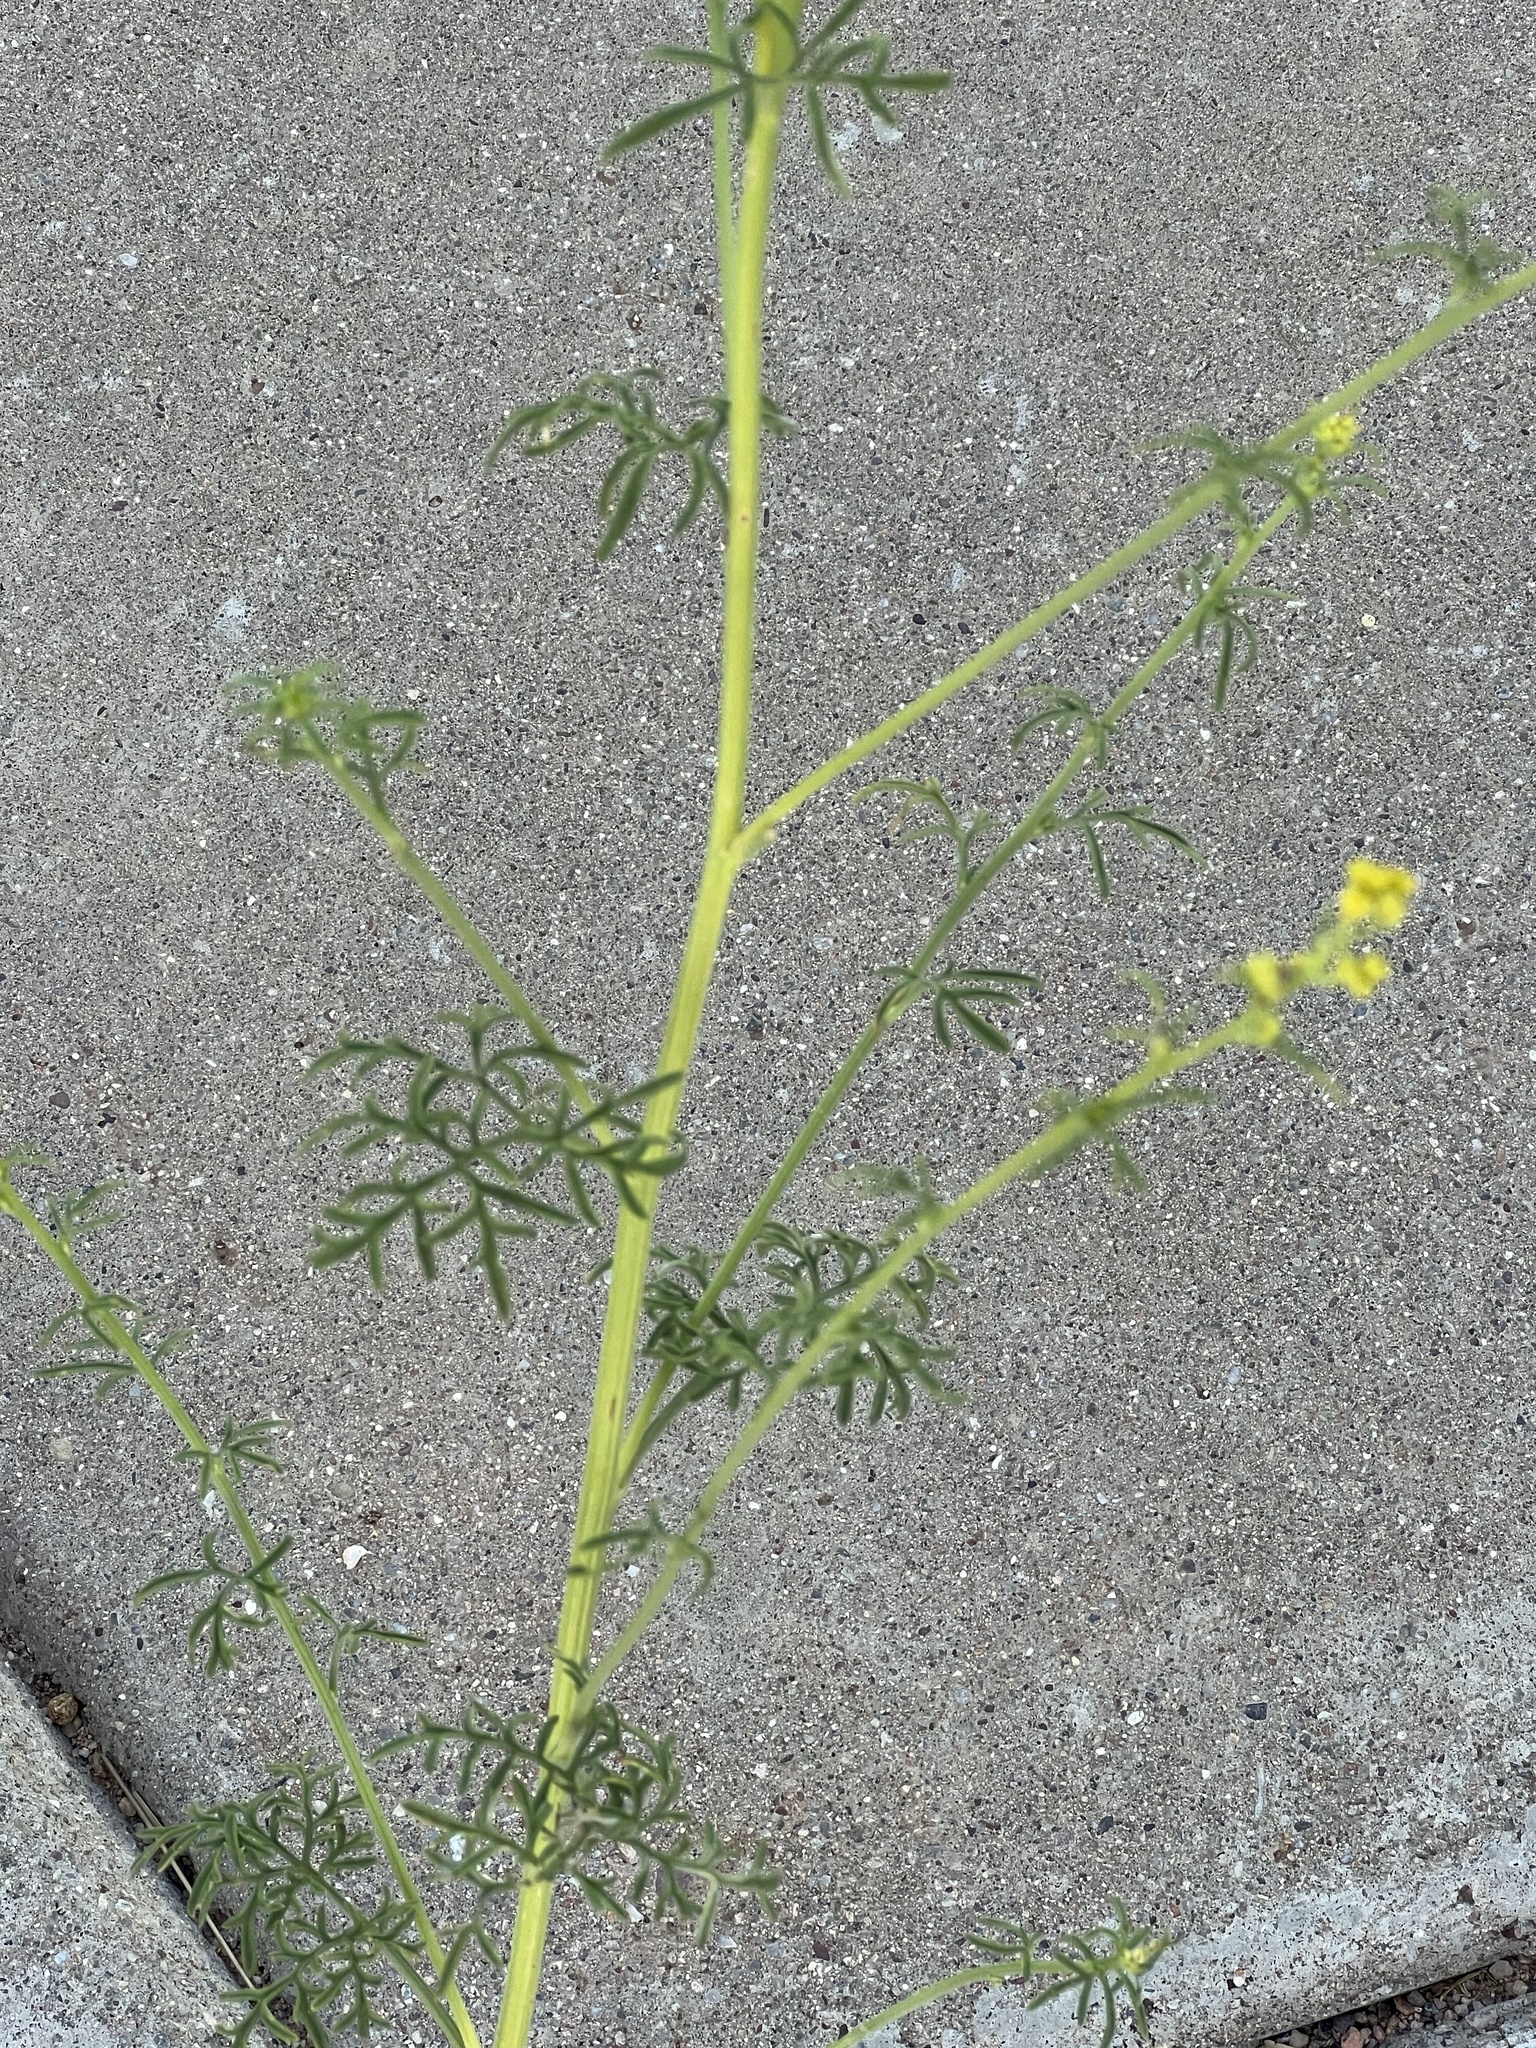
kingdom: Plantae
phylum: Tracheophyta
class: Magnoliopsida
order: Asterales
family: Asteraceae
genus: Hymenothrix
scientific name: Hymenothrix wislizeni
